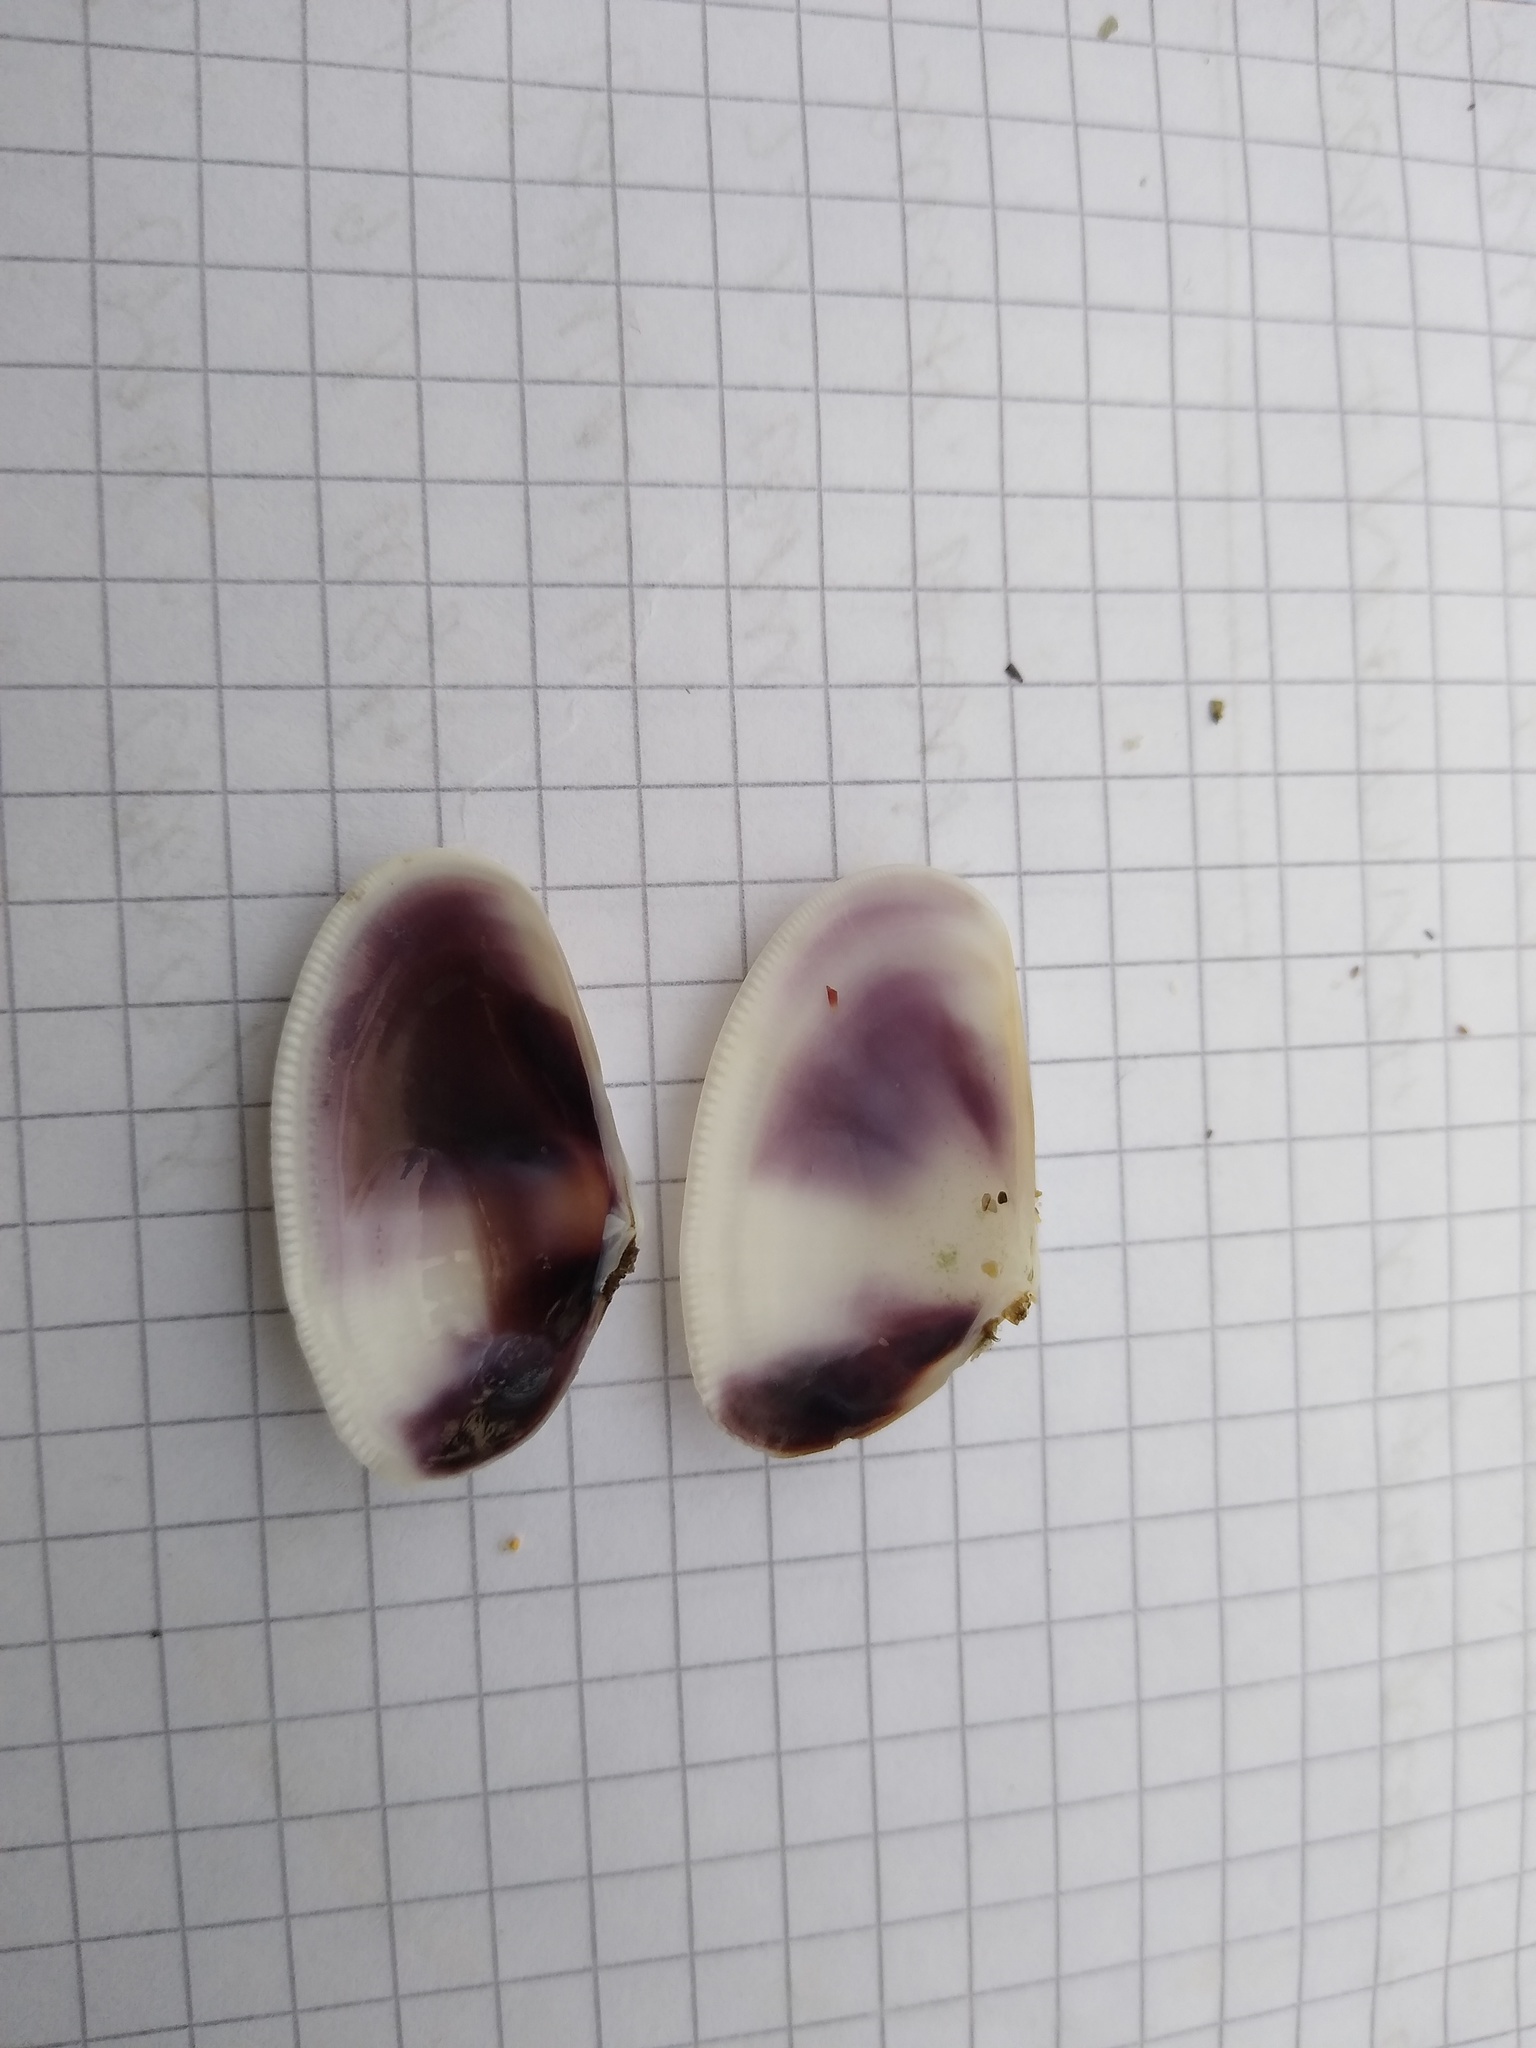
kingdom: Animalia
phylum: Mollusca
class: Bivalvia
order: Cardiida
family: Donacidae
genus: Donax
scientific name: Donax trunculus
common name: Truncate donax
